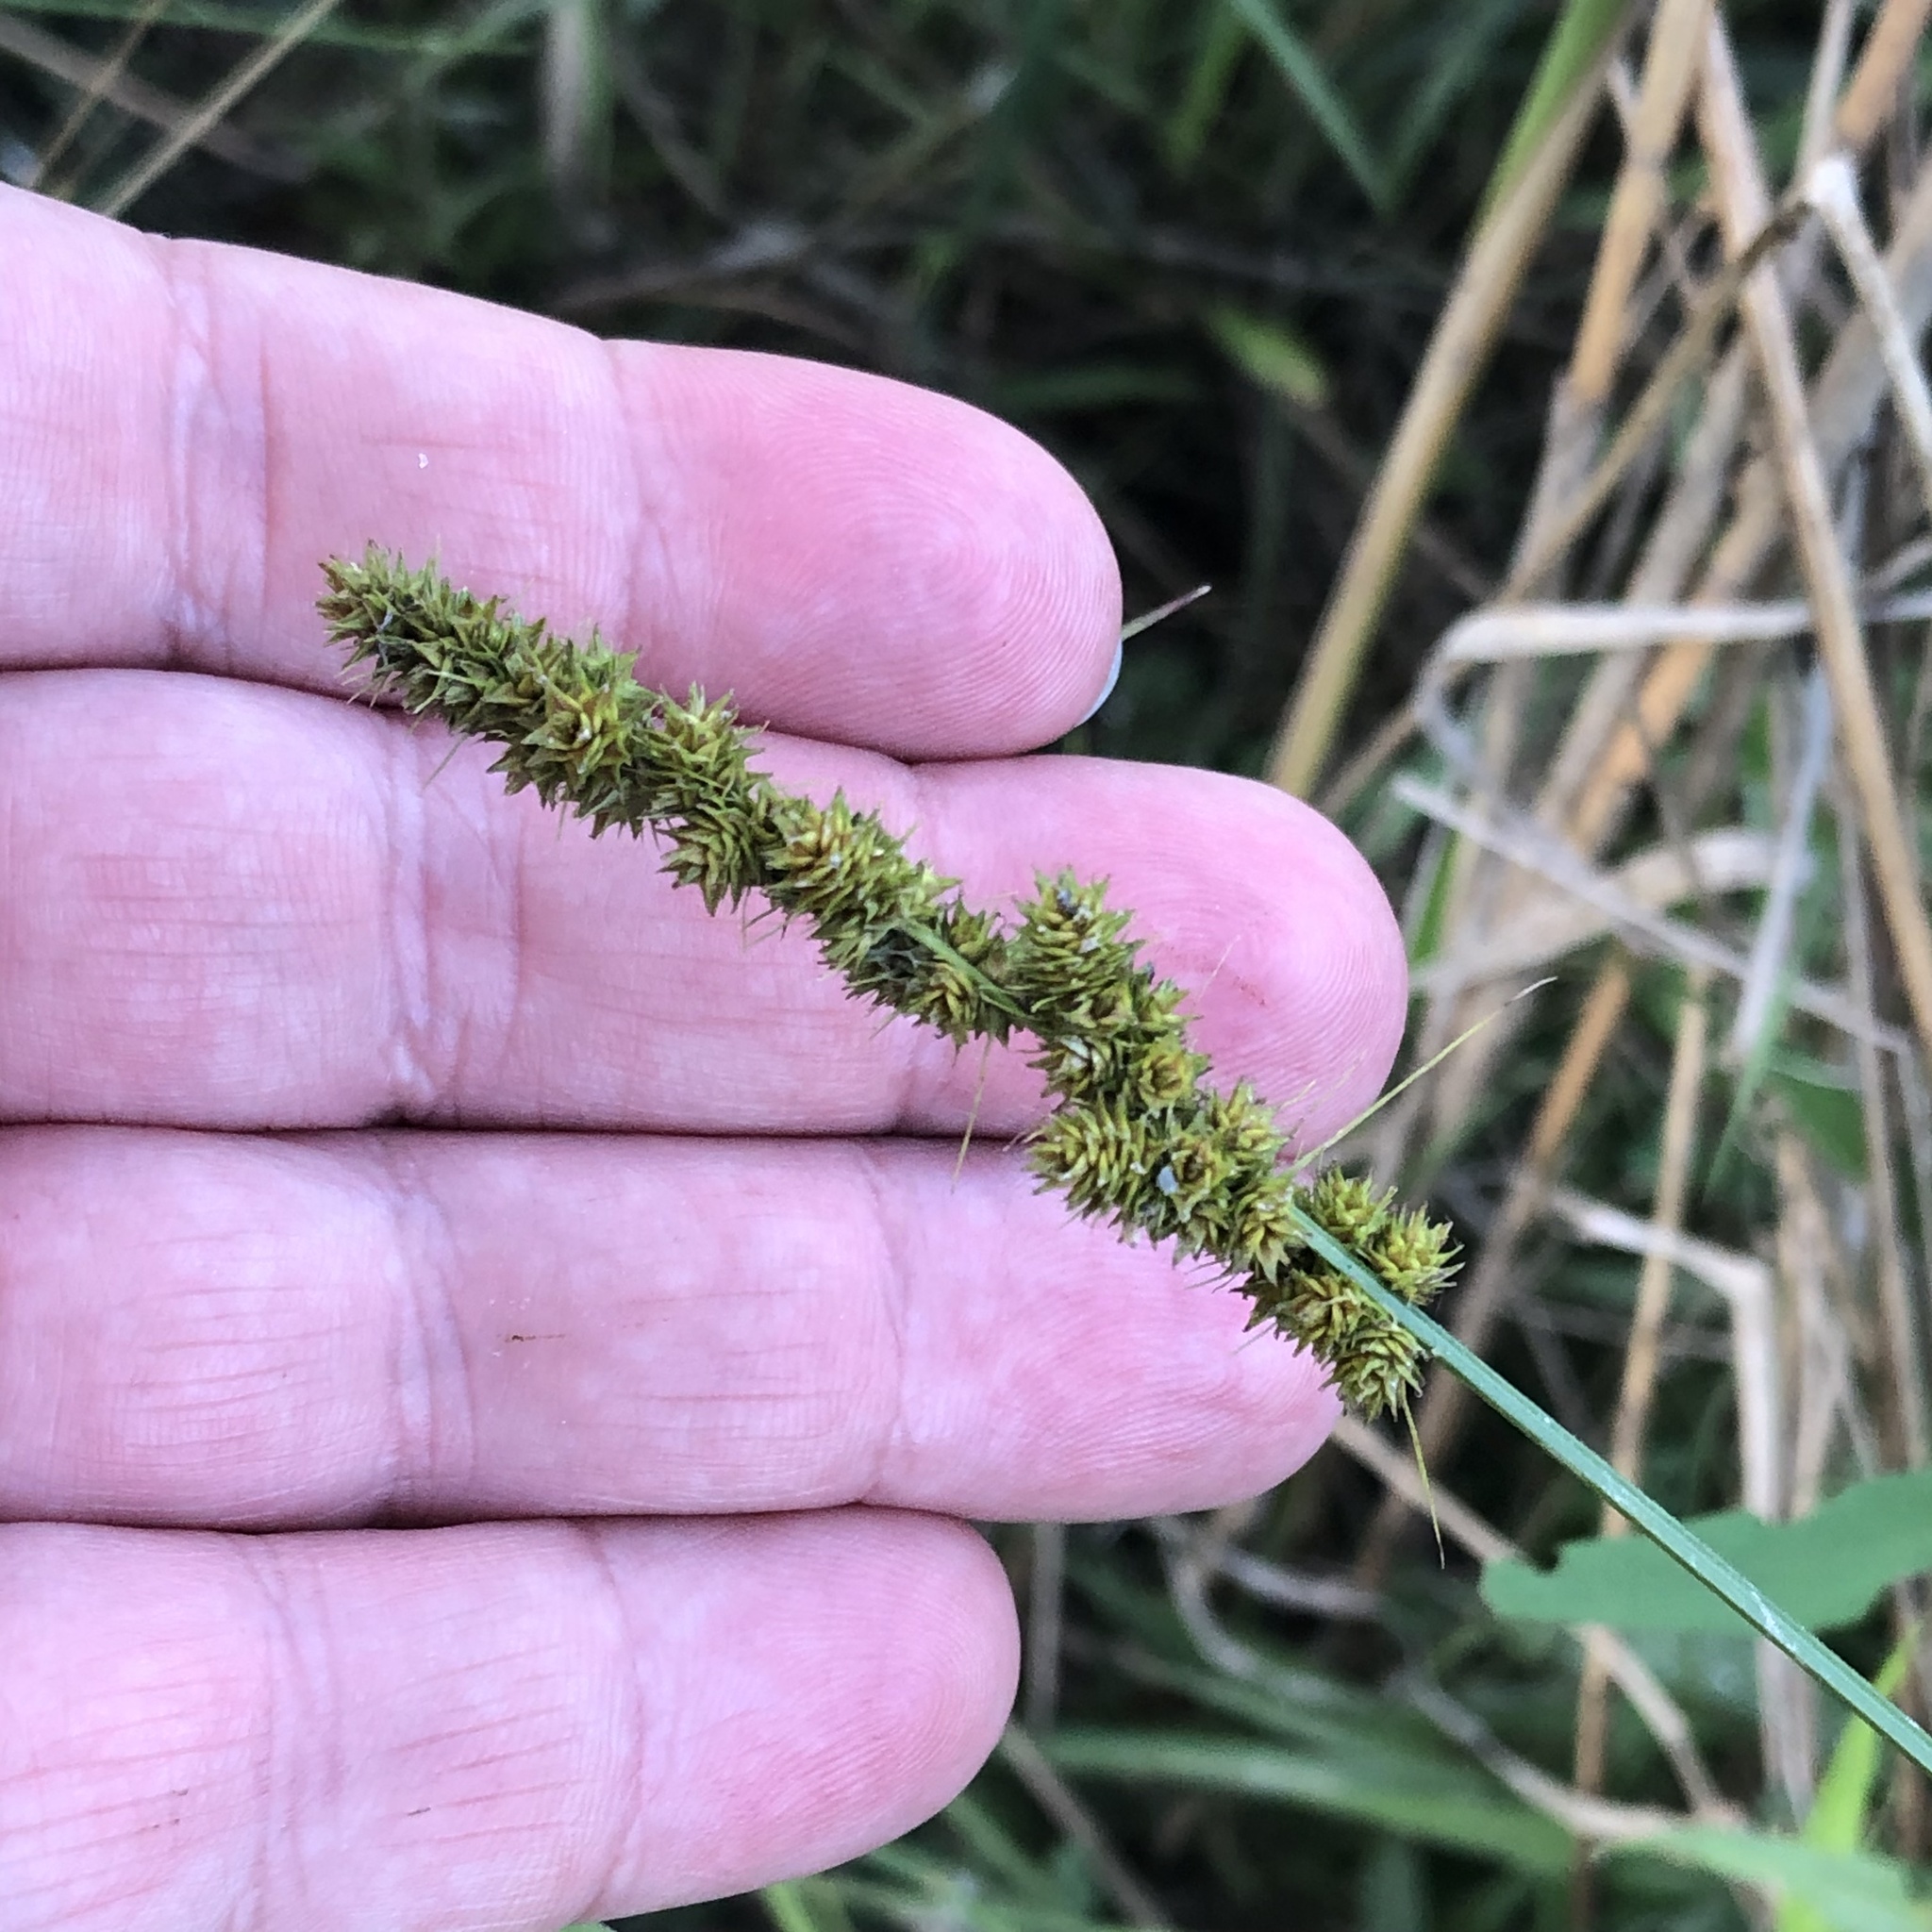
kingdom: Plantae
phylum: Tracheophyta
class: Liliopsida
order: Poales
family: Cyperaceae
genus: Carex
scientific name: Carex vulpinoidea
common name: American fox-sedge
